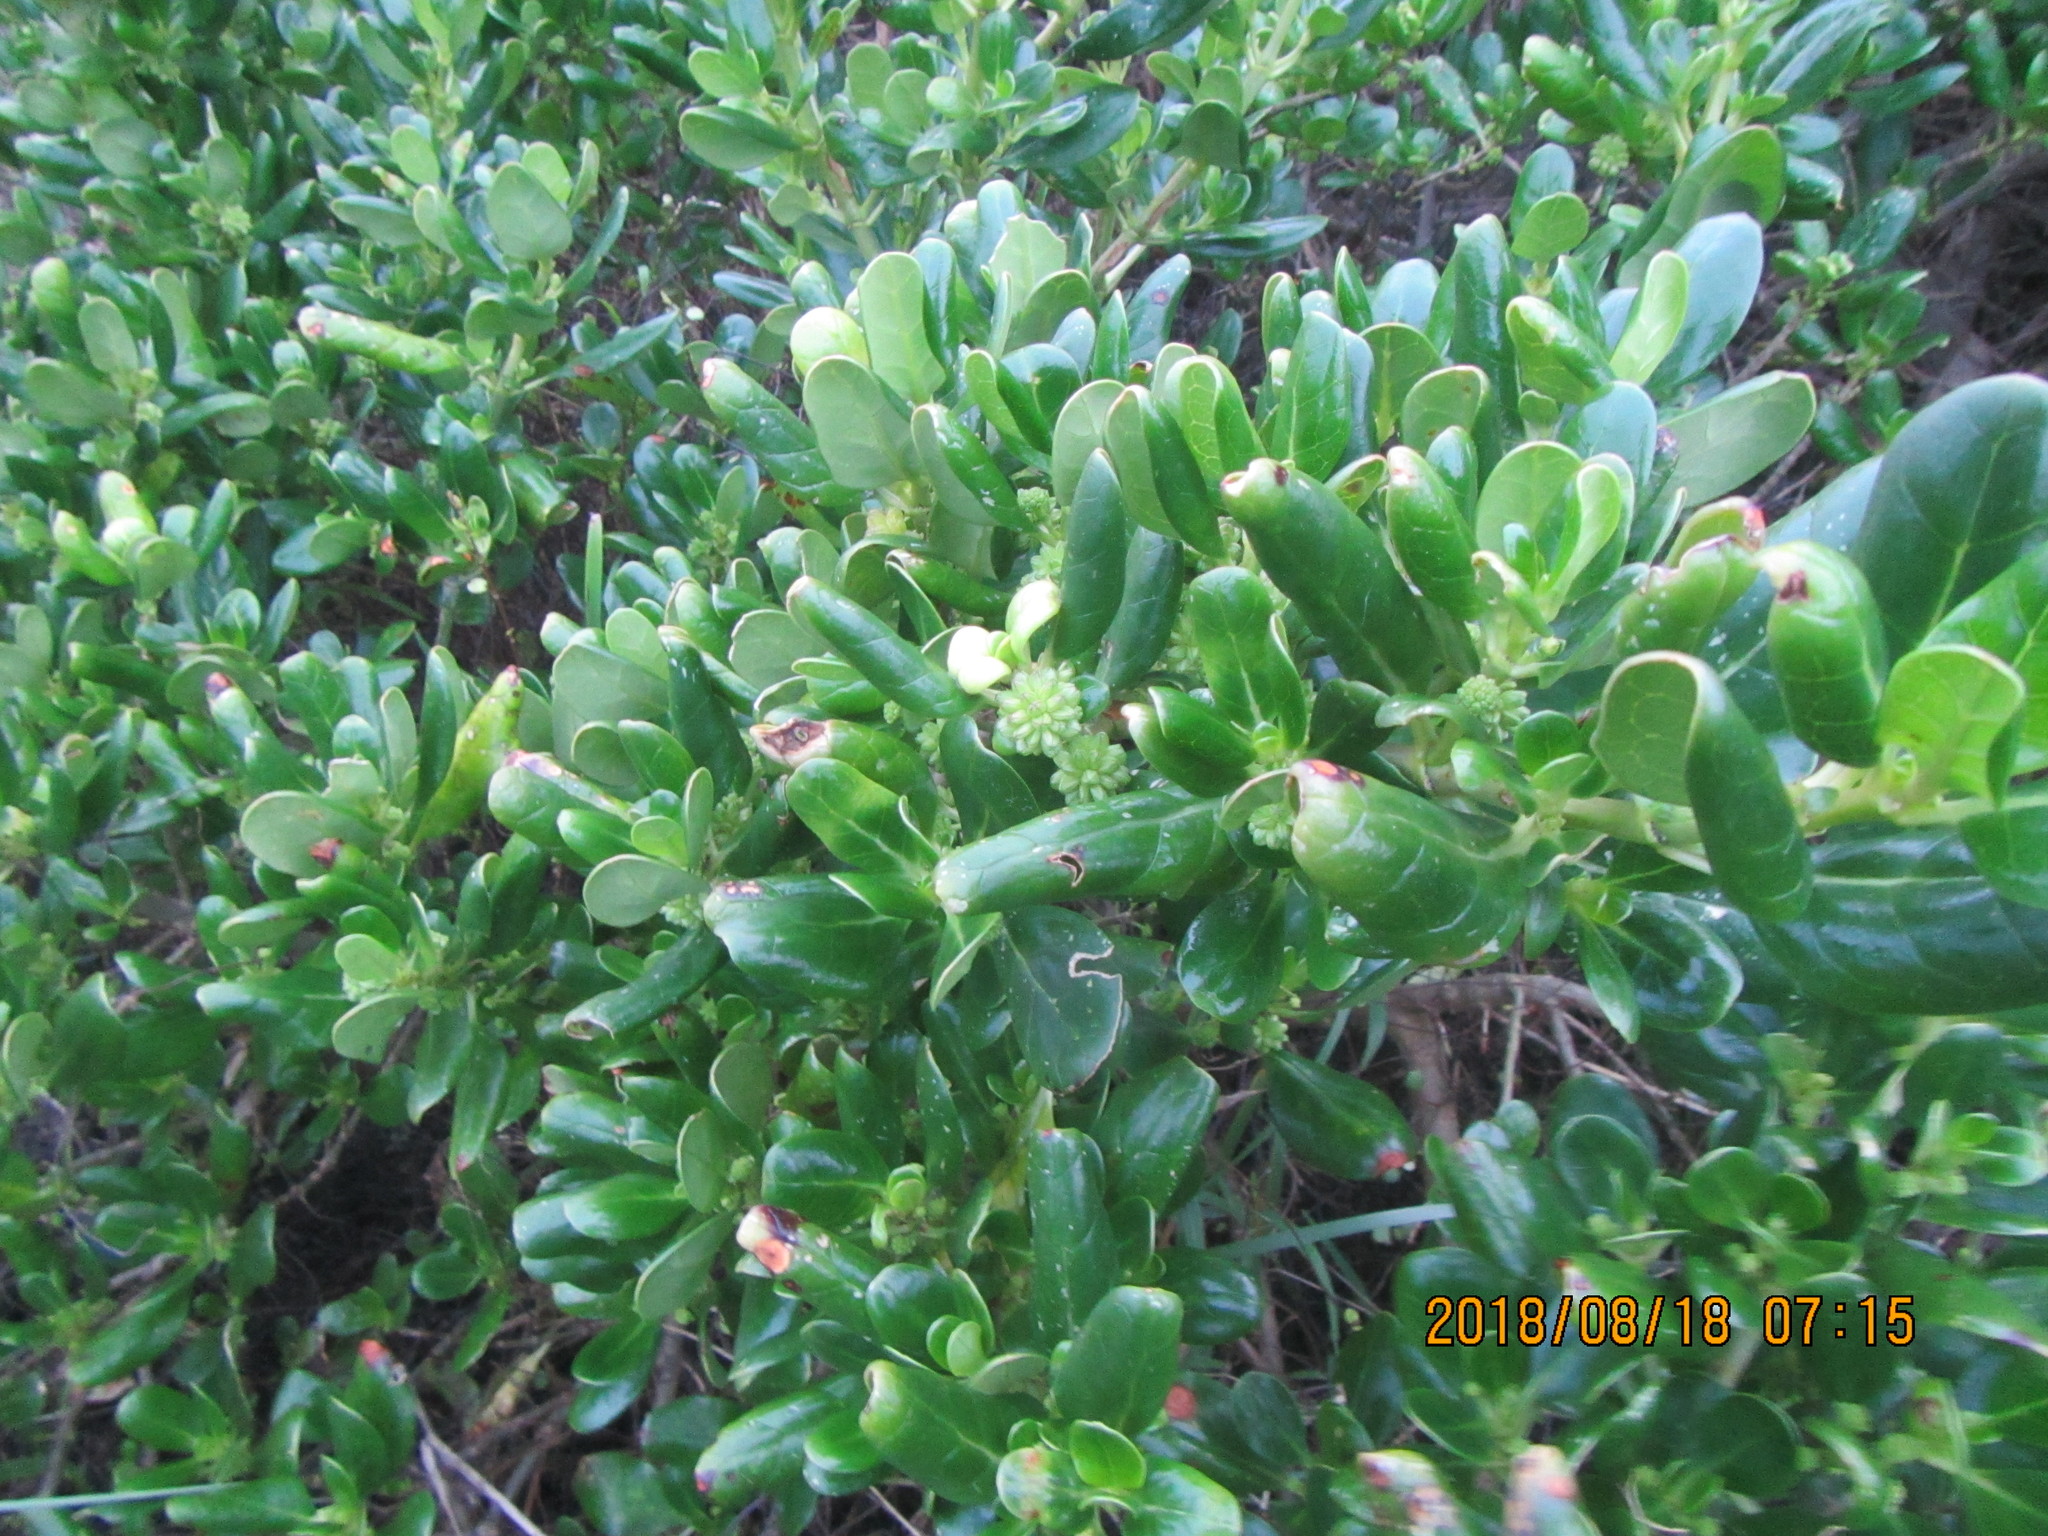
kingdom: Plantae
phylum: Tracheophyta
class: Magnoliopsida
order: Gentianales
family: Rubiaceae
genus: Coprosma
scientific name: Coprosma repens
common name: Tree bedstraw
